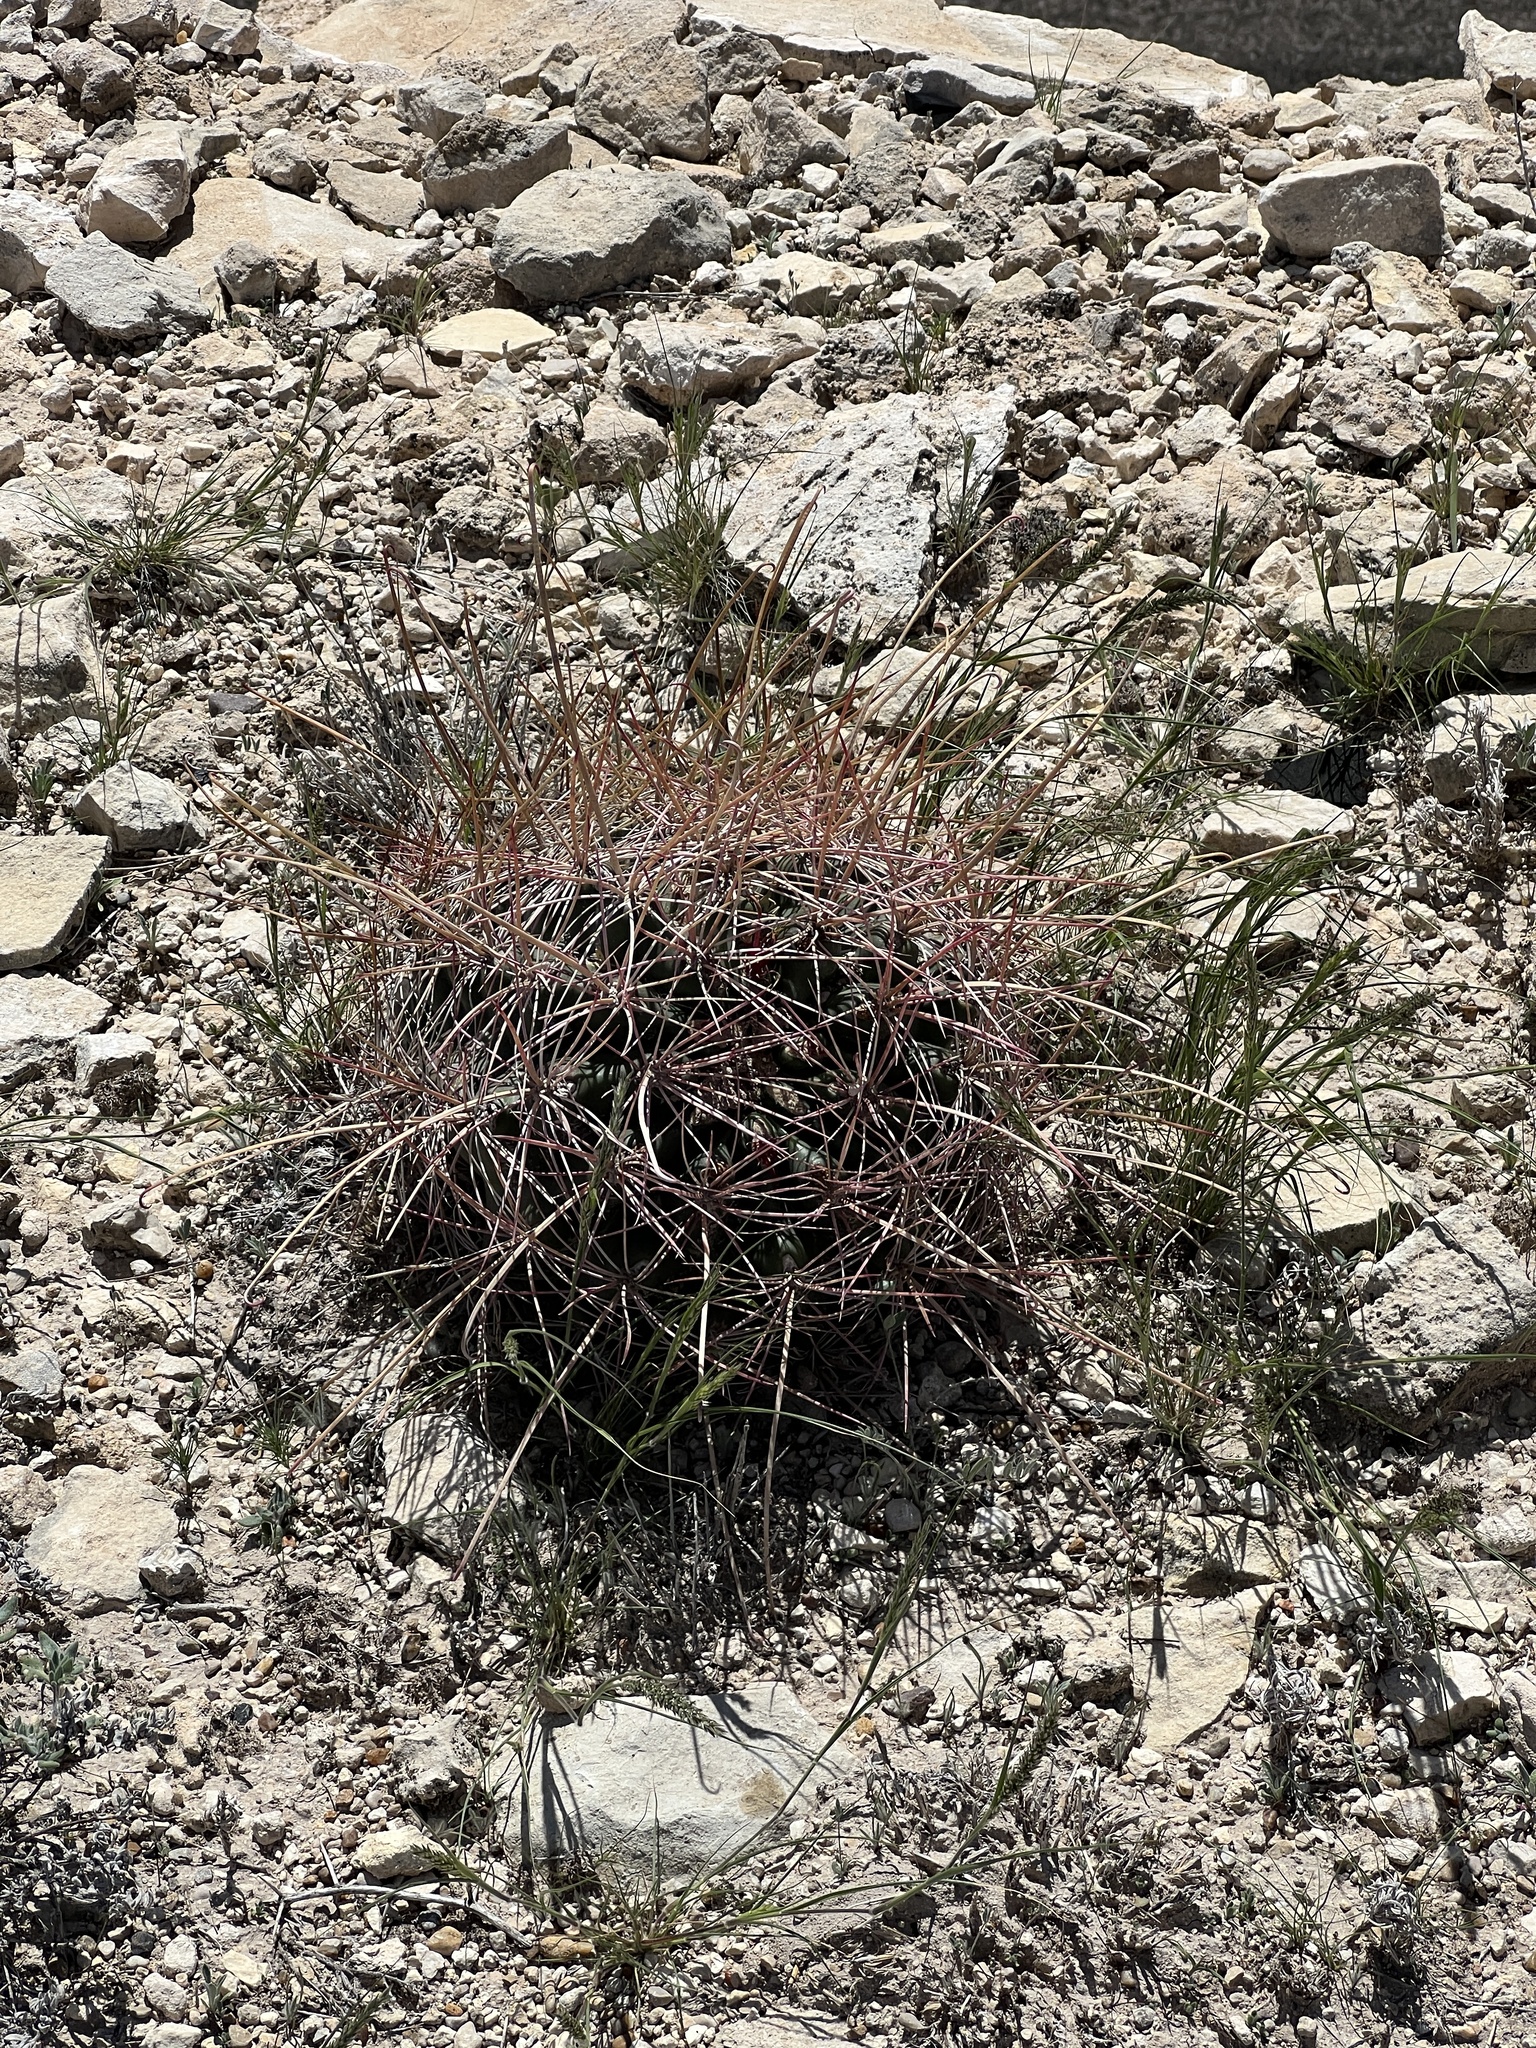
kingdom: Plantae
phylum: Tracheophyta
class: Magnoliopsida
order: Caryophyllales
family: Cactaceae
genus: Bisnaga
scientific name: Bisnaga hamatacantha
